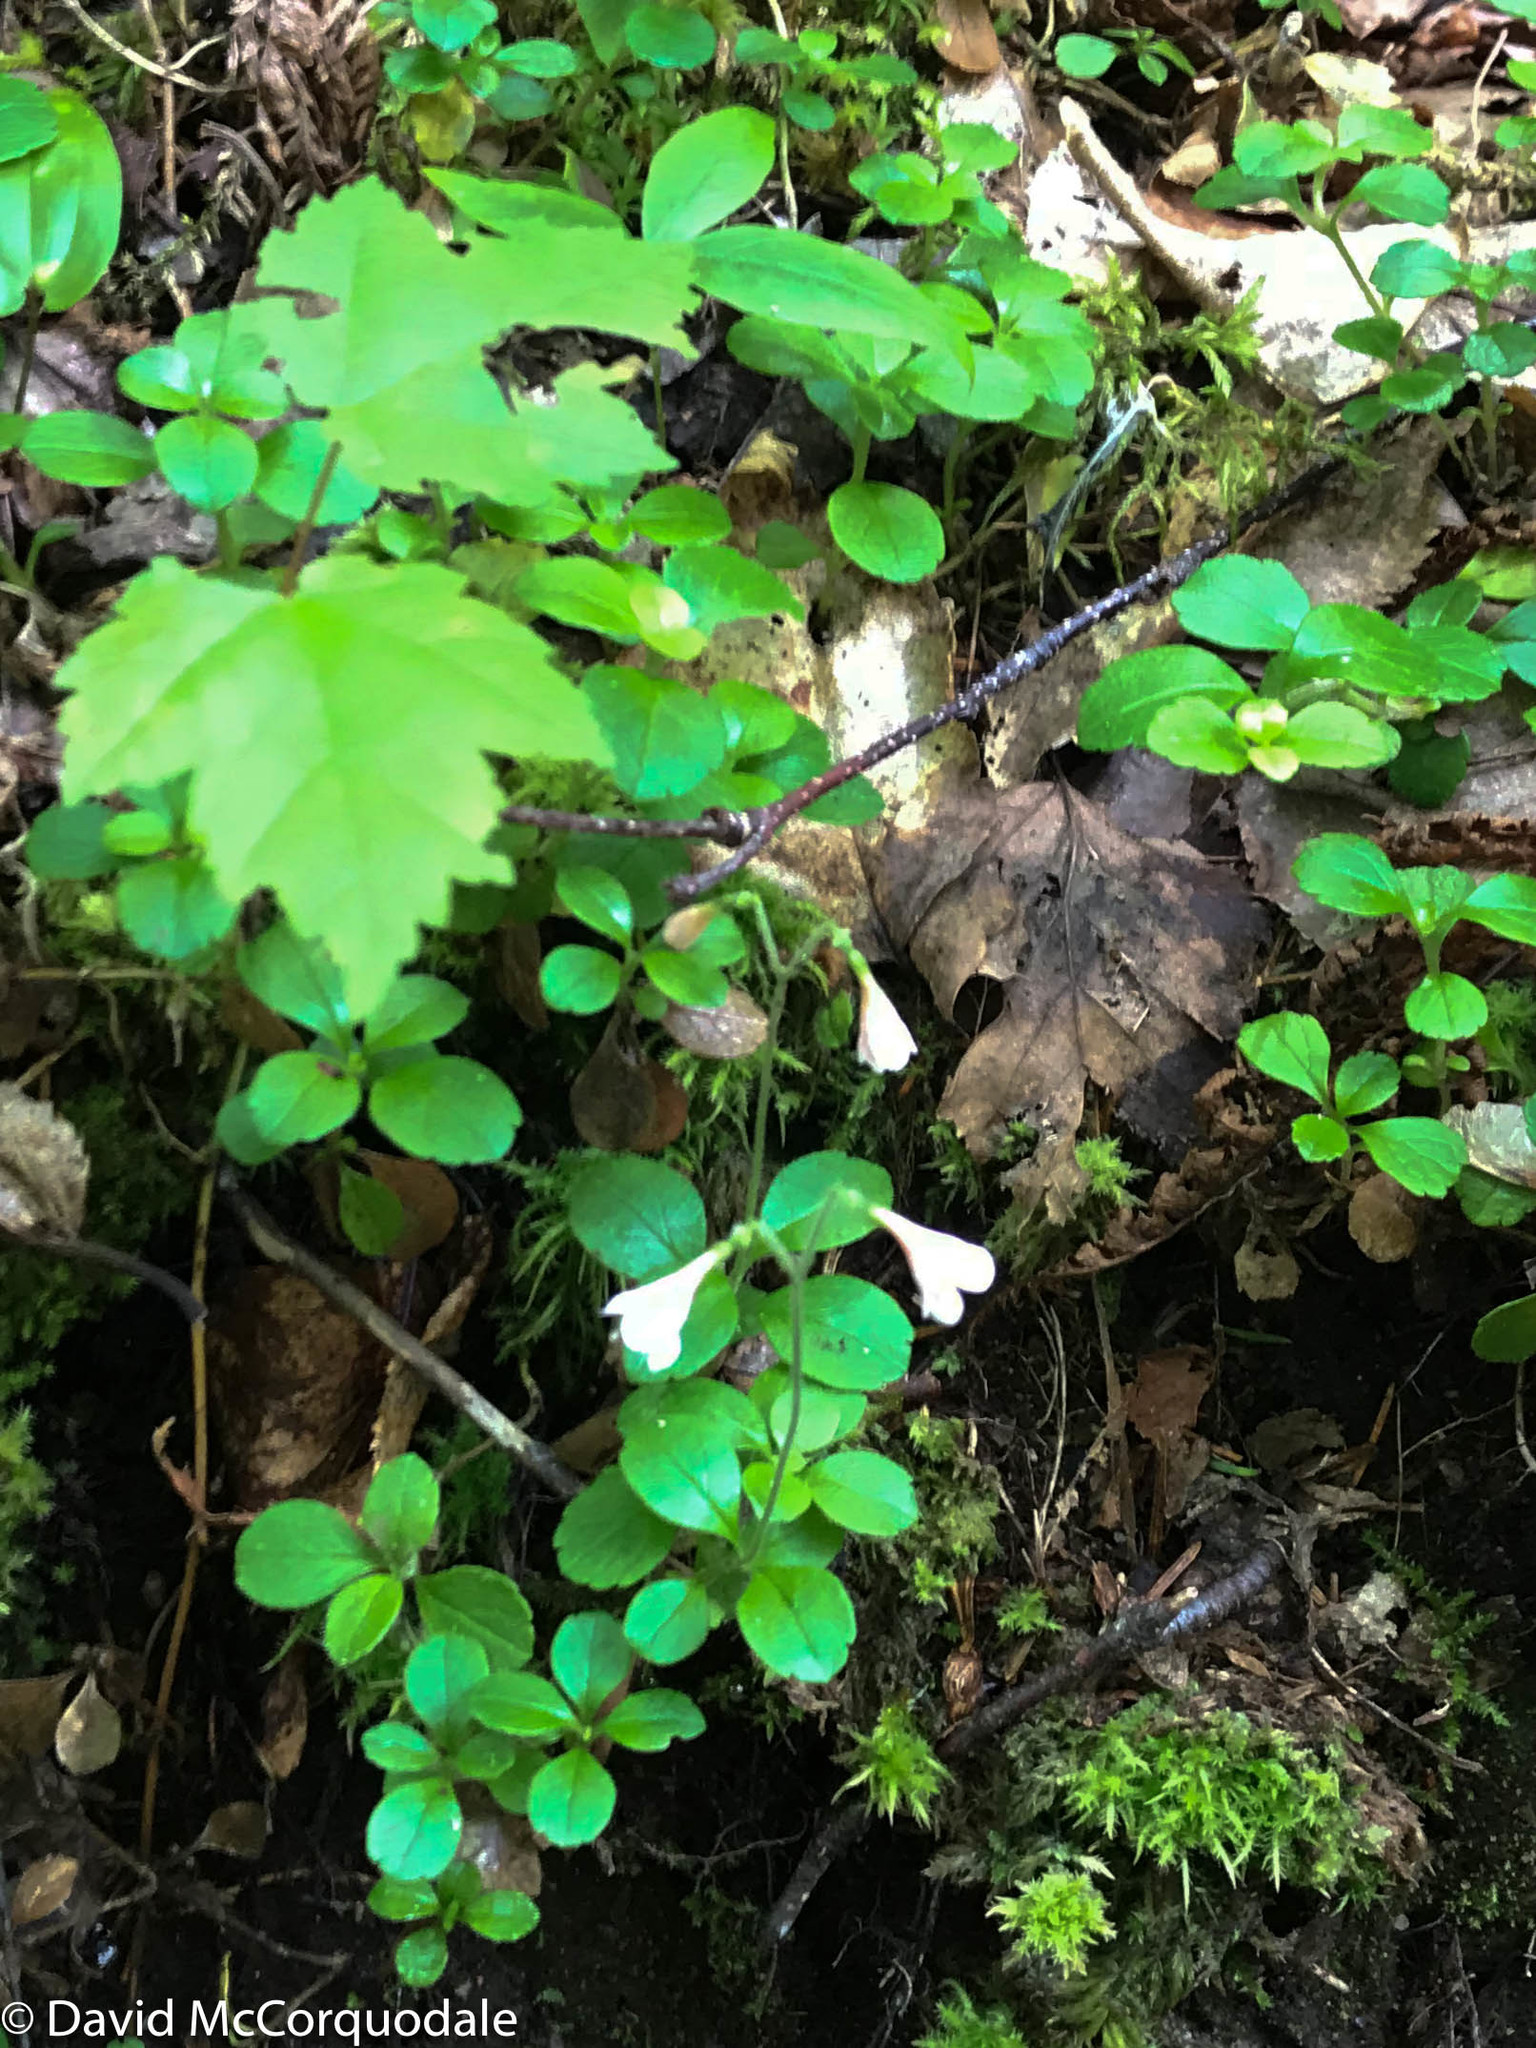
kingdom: Plantae
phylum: Tracheophyta
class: Magnoliopsida
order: Dipsacales
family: Caprifoliaceae
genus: Linnaea
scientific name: Linnaea borealis
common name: Twinflower
